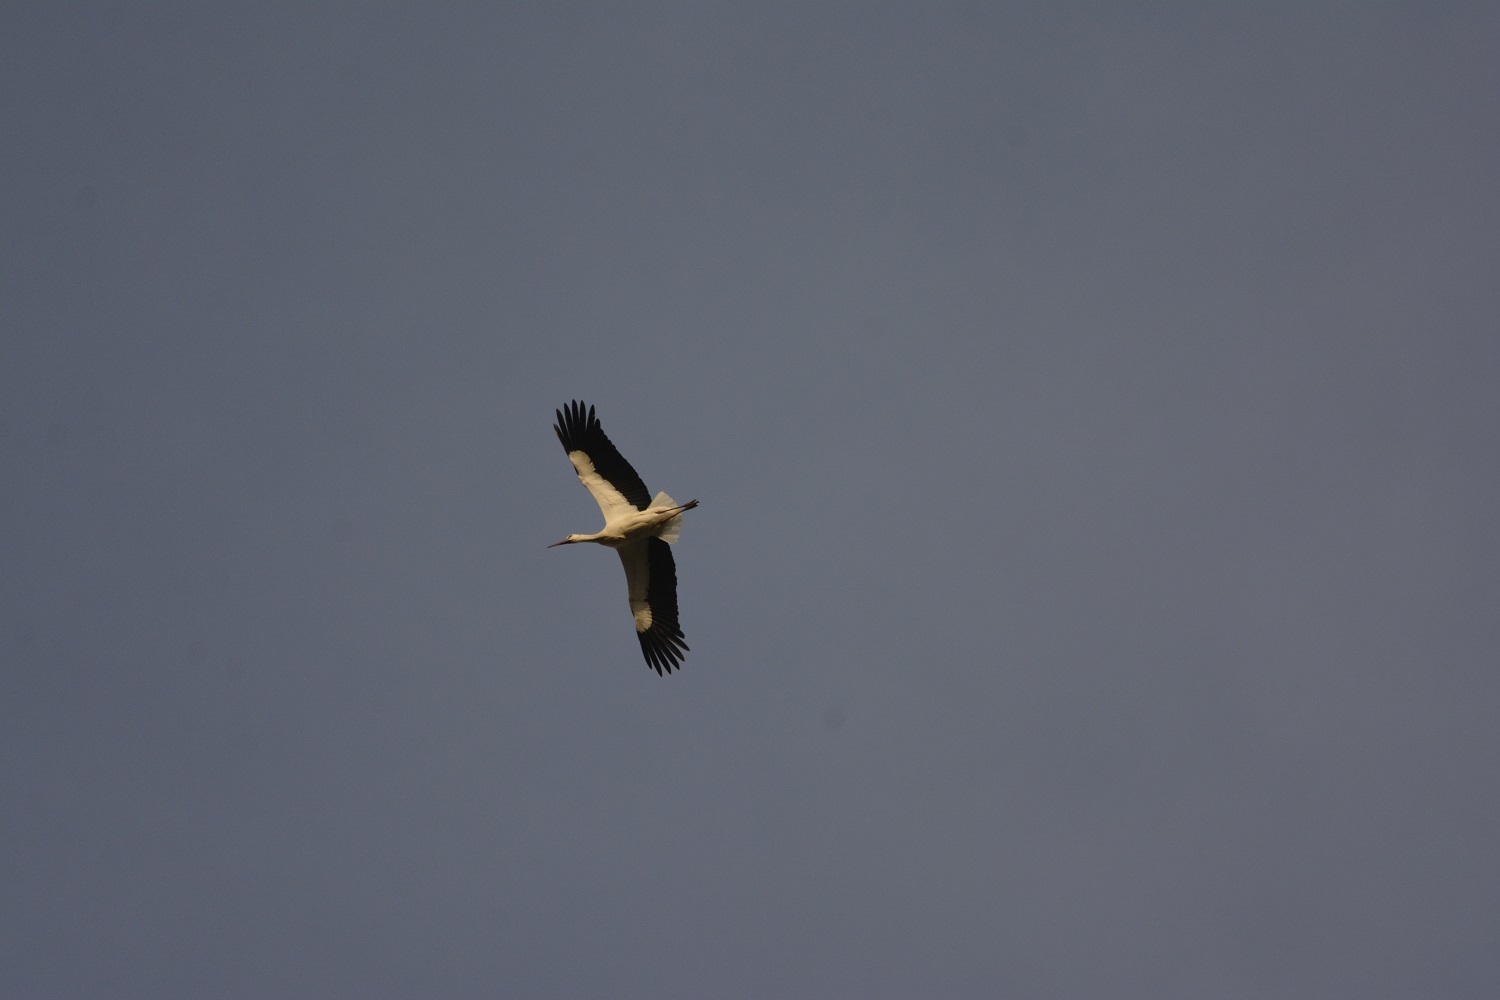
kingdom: Animalia
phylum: Chordata
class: Aves
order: Ciconiiformes
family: Ciconiidae
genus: Ciconia
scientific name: Ciconia ciconia
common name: White stork
